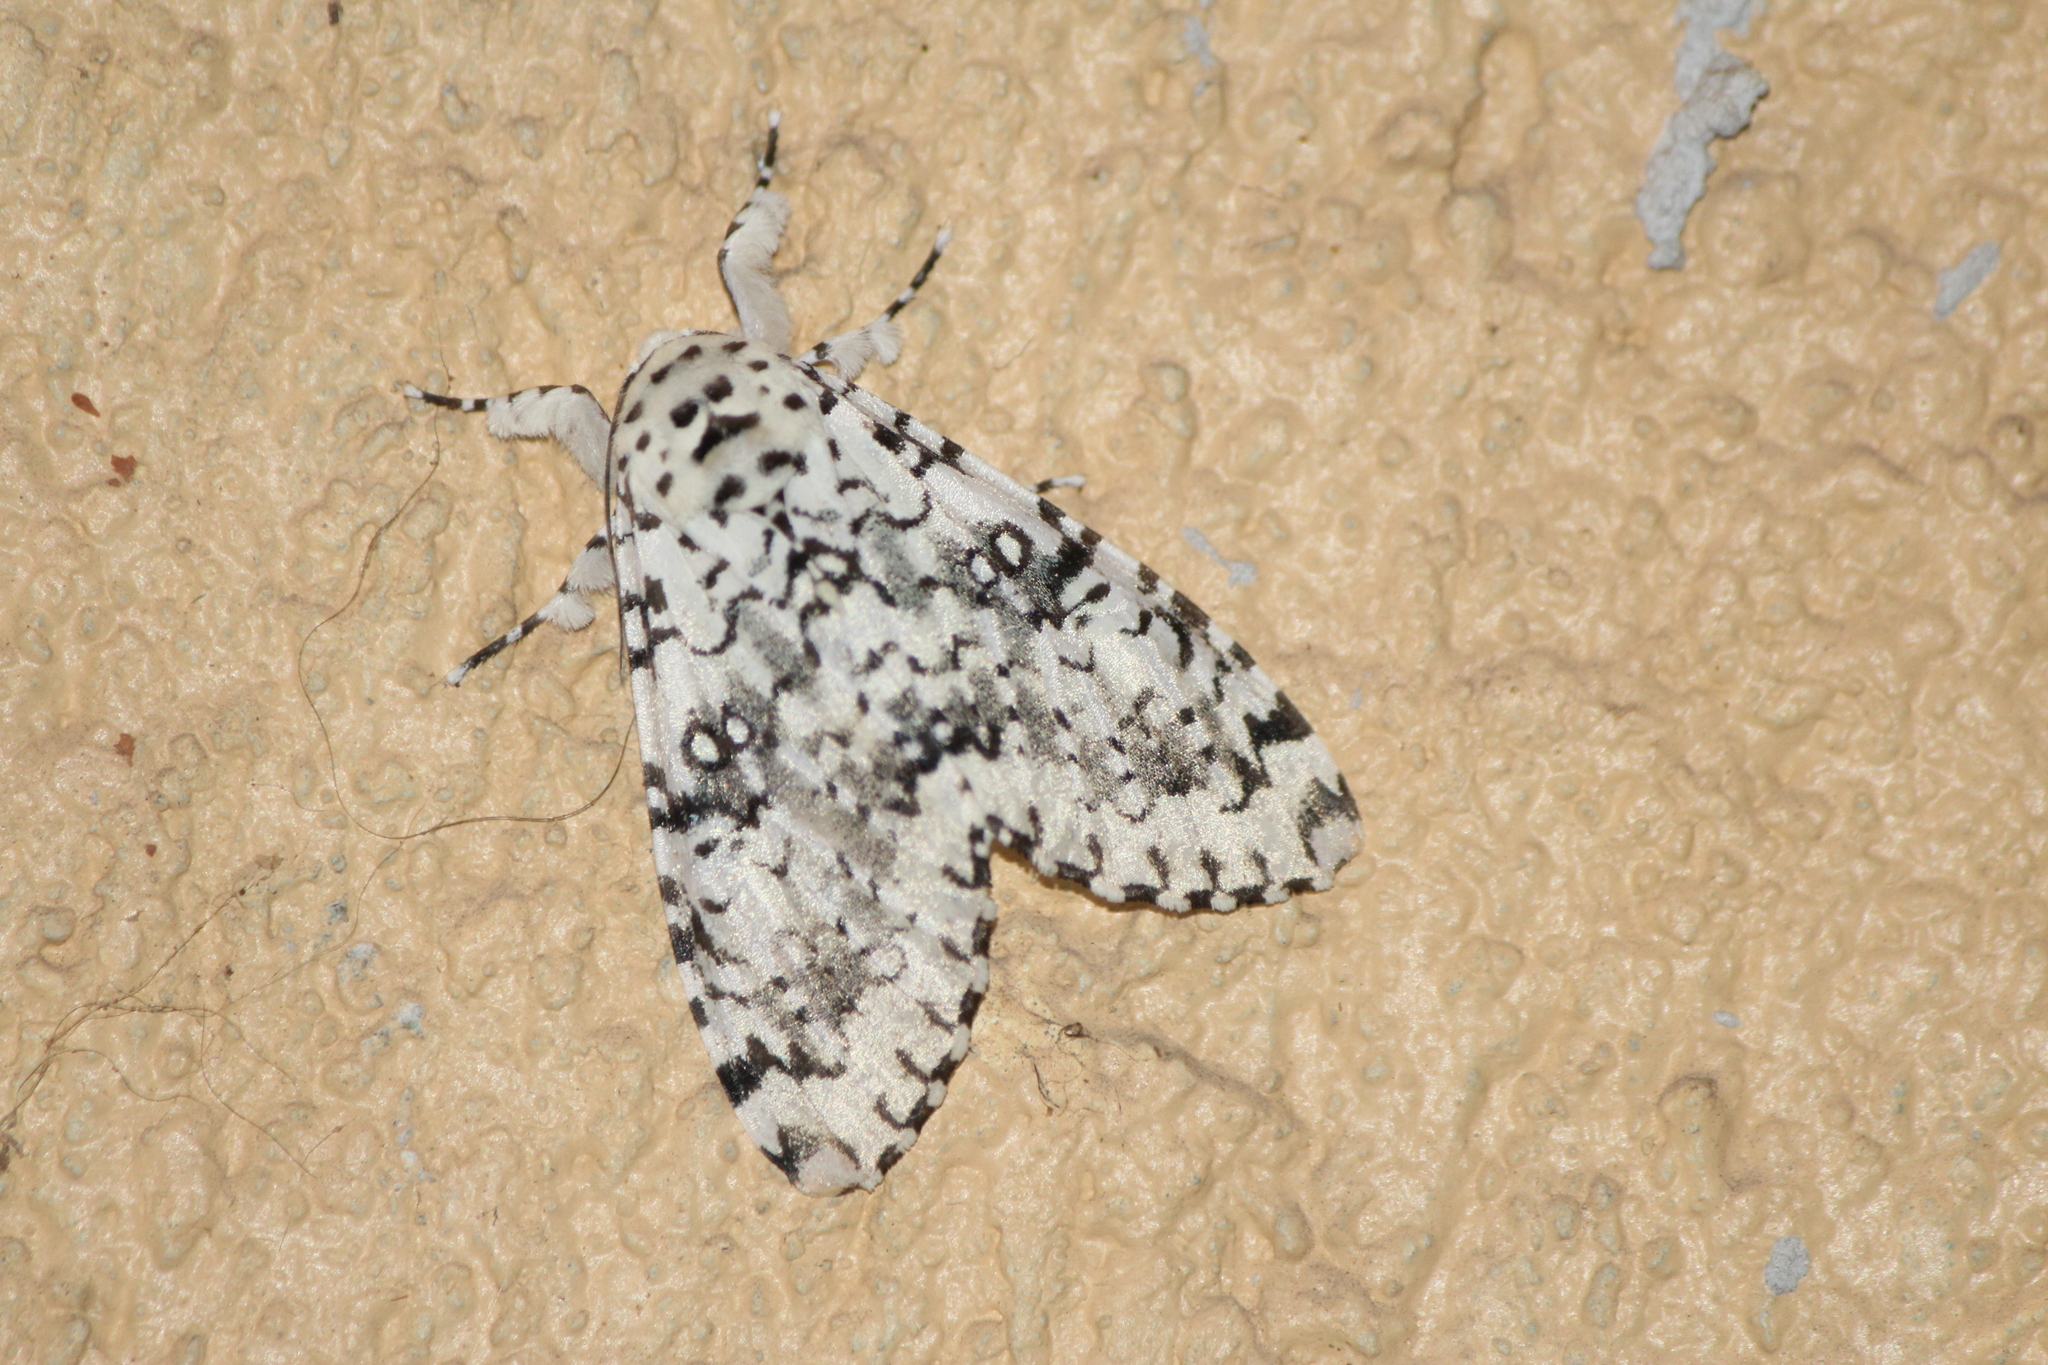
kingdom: Animalia
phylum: Arthropoda
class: Insecta
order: Lepidoptera
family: Noctuidae
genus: Lichnoptera
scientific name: Lichnoptera decora
